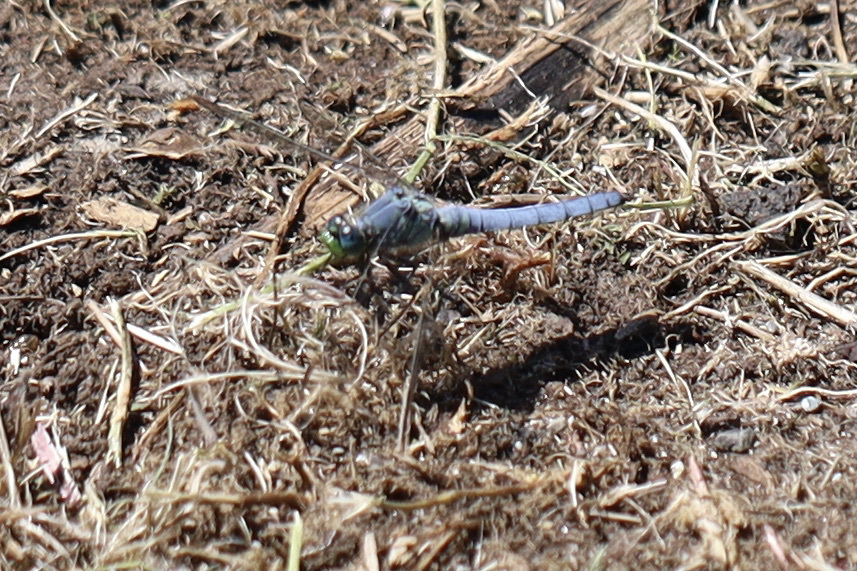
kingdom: Animalia
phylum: Arthropoda
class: Insecta
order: Odonata
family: Libellulidae
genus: Erythemis
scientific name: Erythemis collocata
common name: Western pondhawk
